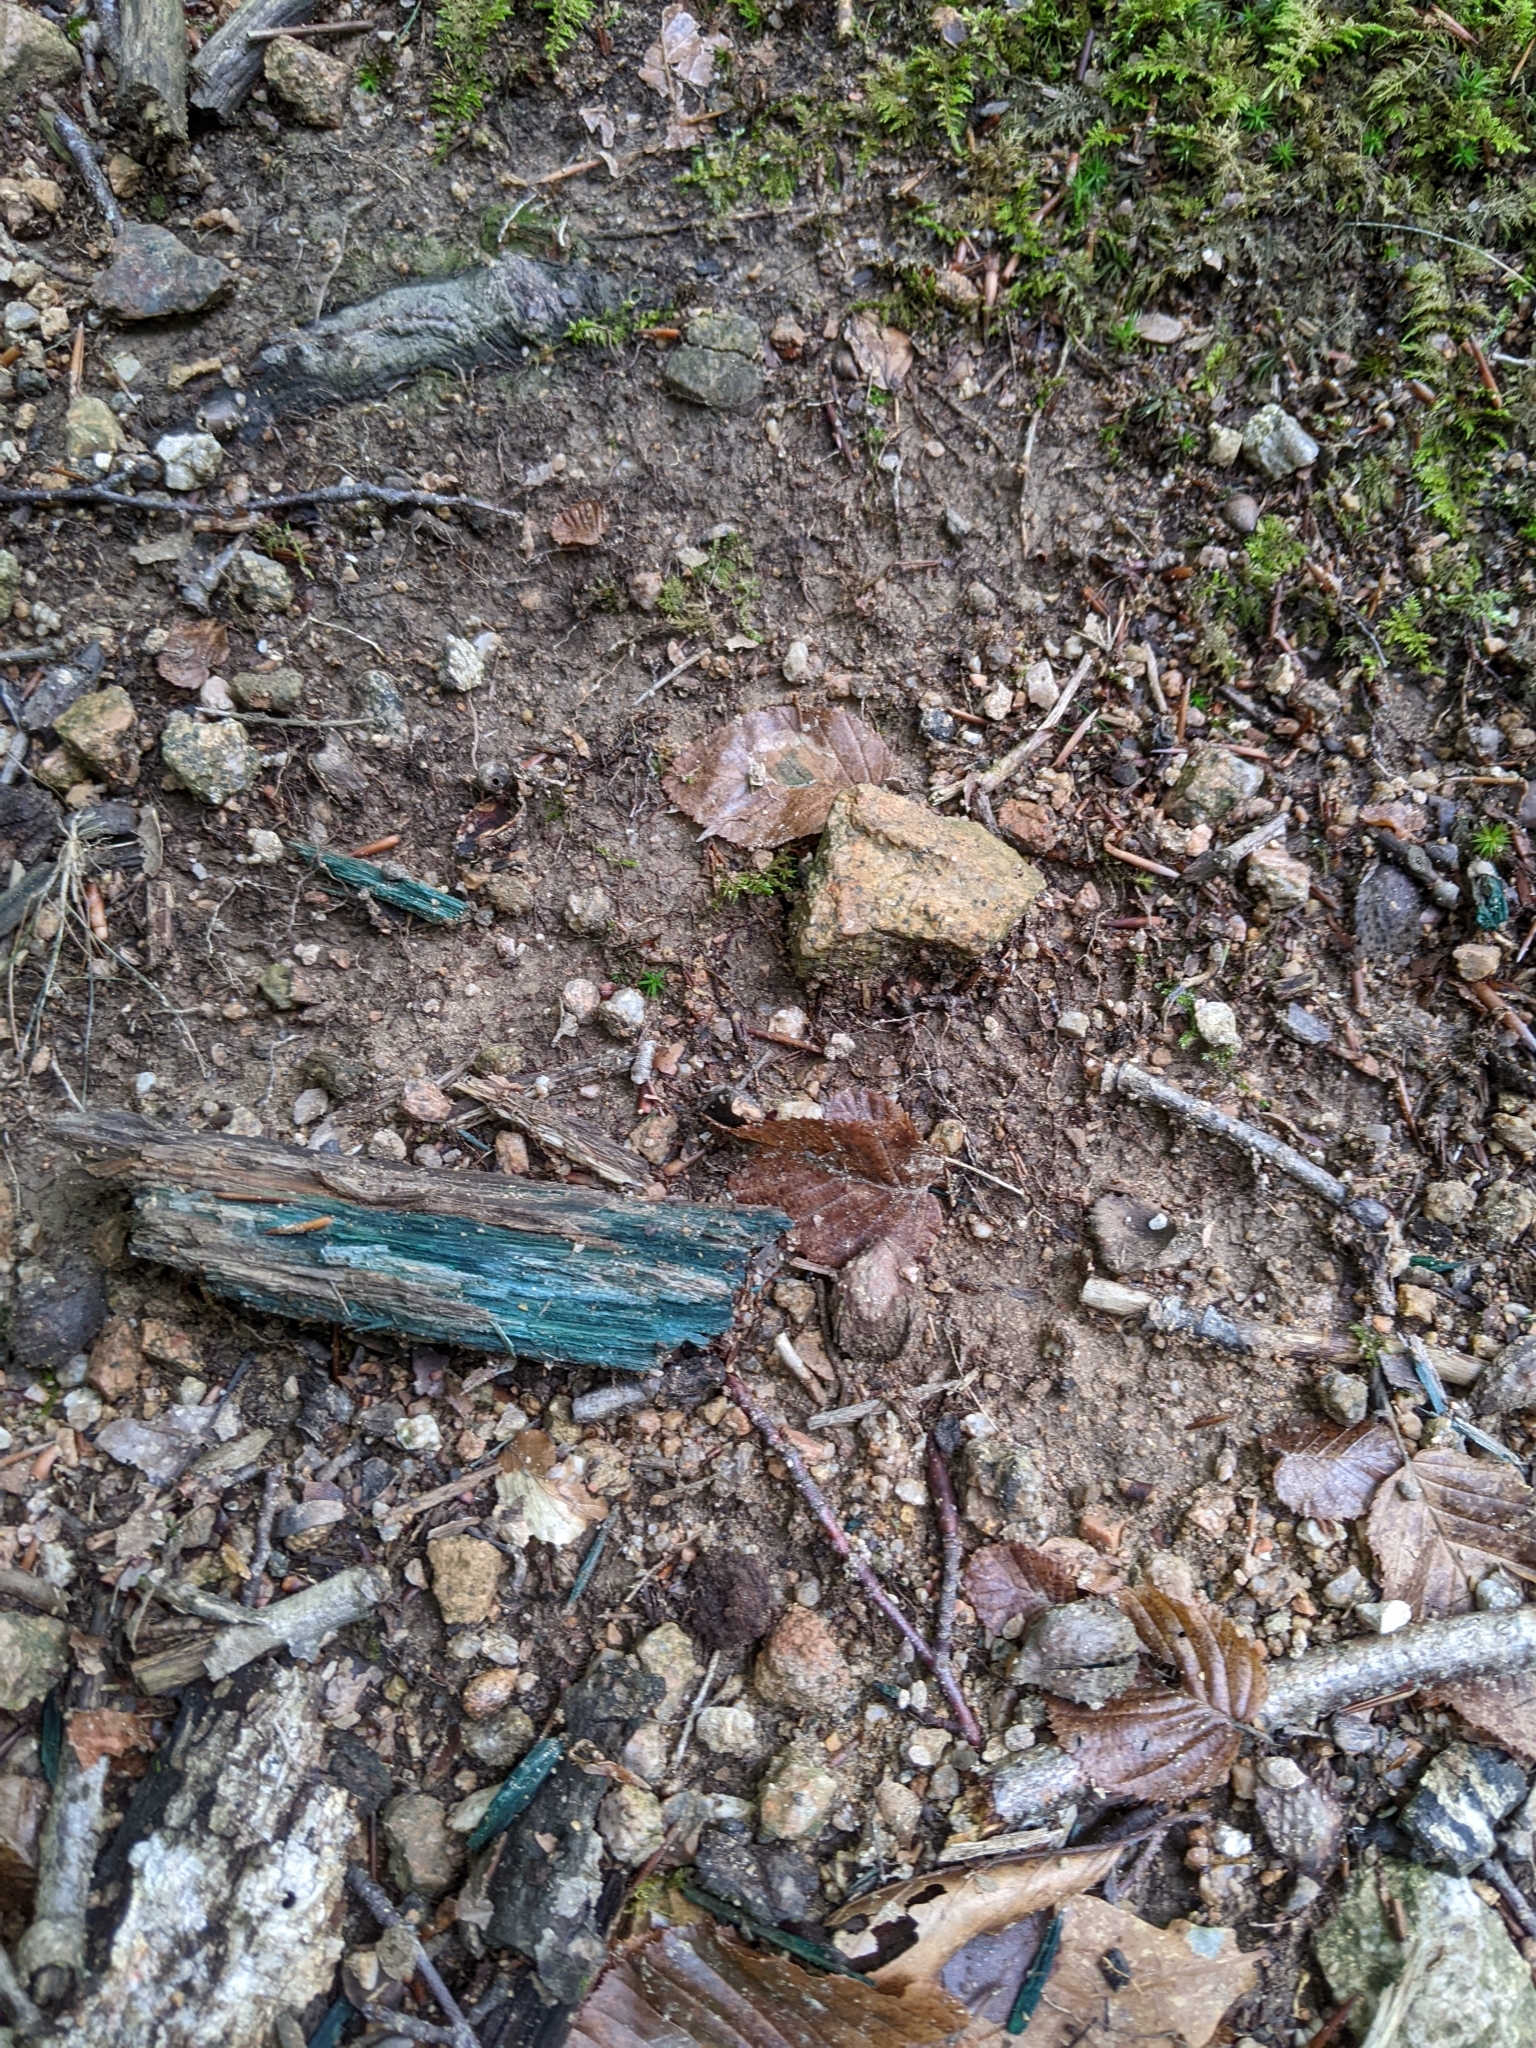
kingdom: Fungi
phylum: Ascomycota
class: Leotiomycetes
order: Helotiales
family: Chlorociboriaceae
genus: Chlorociboria
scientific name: Chlorociboria
